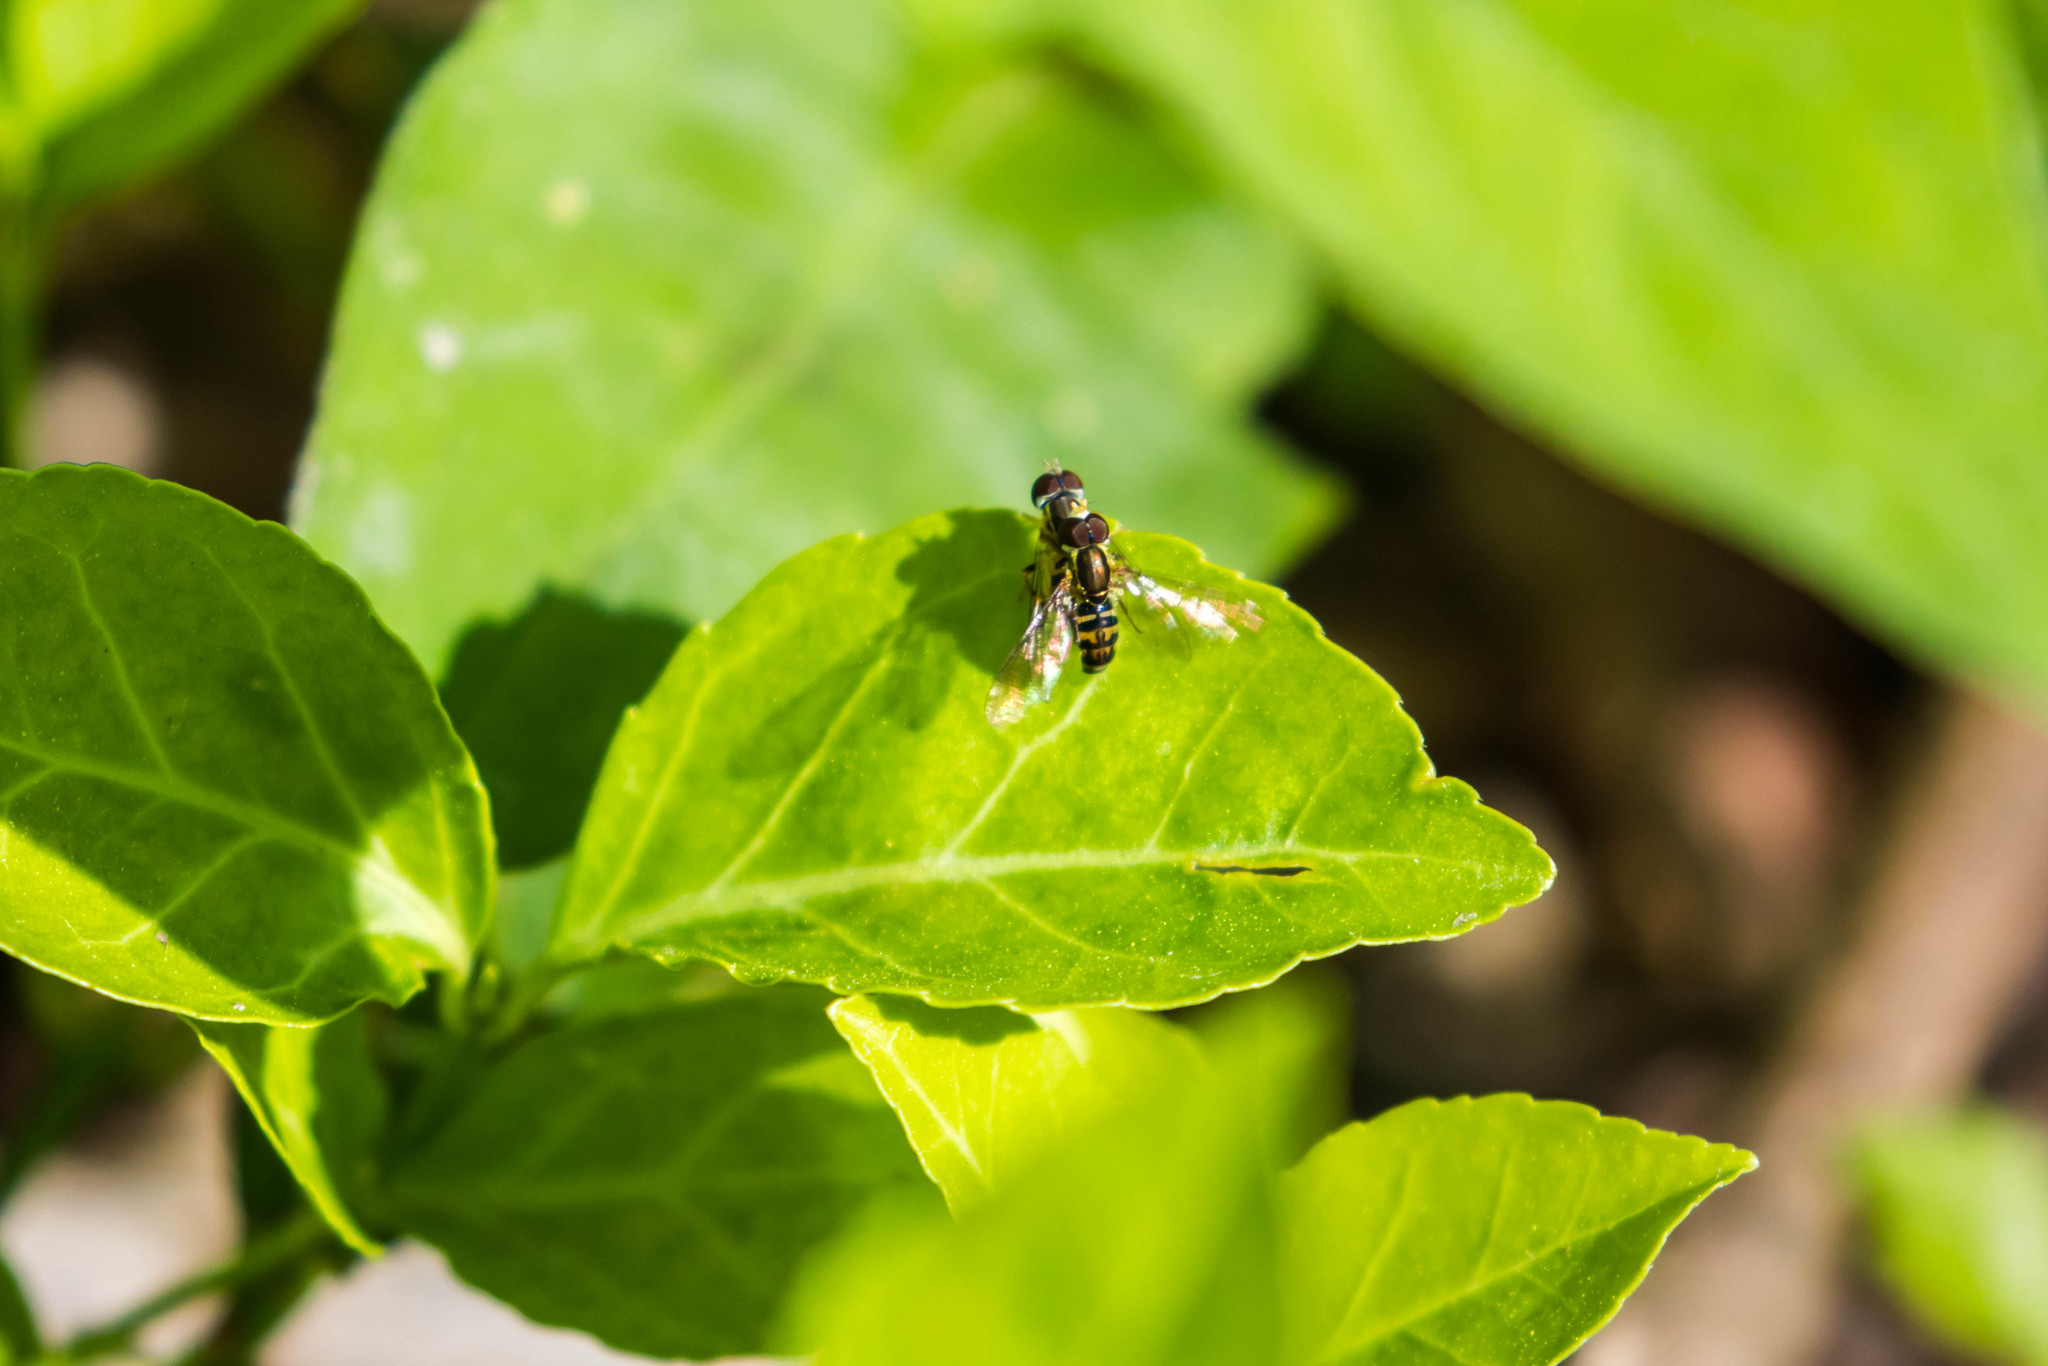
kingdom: Animalia
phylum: Arthropoda
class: Insecta
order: Diptera
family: Syrphidae
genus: Toxomerus
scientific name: Toxomerus geminatus
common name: Eastern calligrapher
